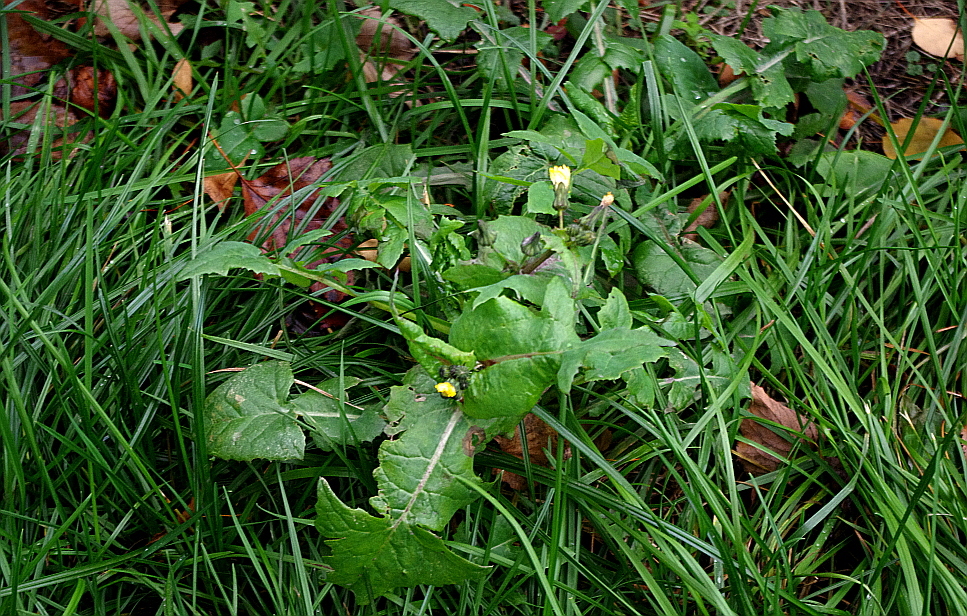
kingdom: Plantae
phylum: Tracheophyta
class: Magnoliopsida
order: Asterales
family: Asteraceae
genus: Sonchus
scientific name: Sonchus oleraceus
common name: Common sowthistle
